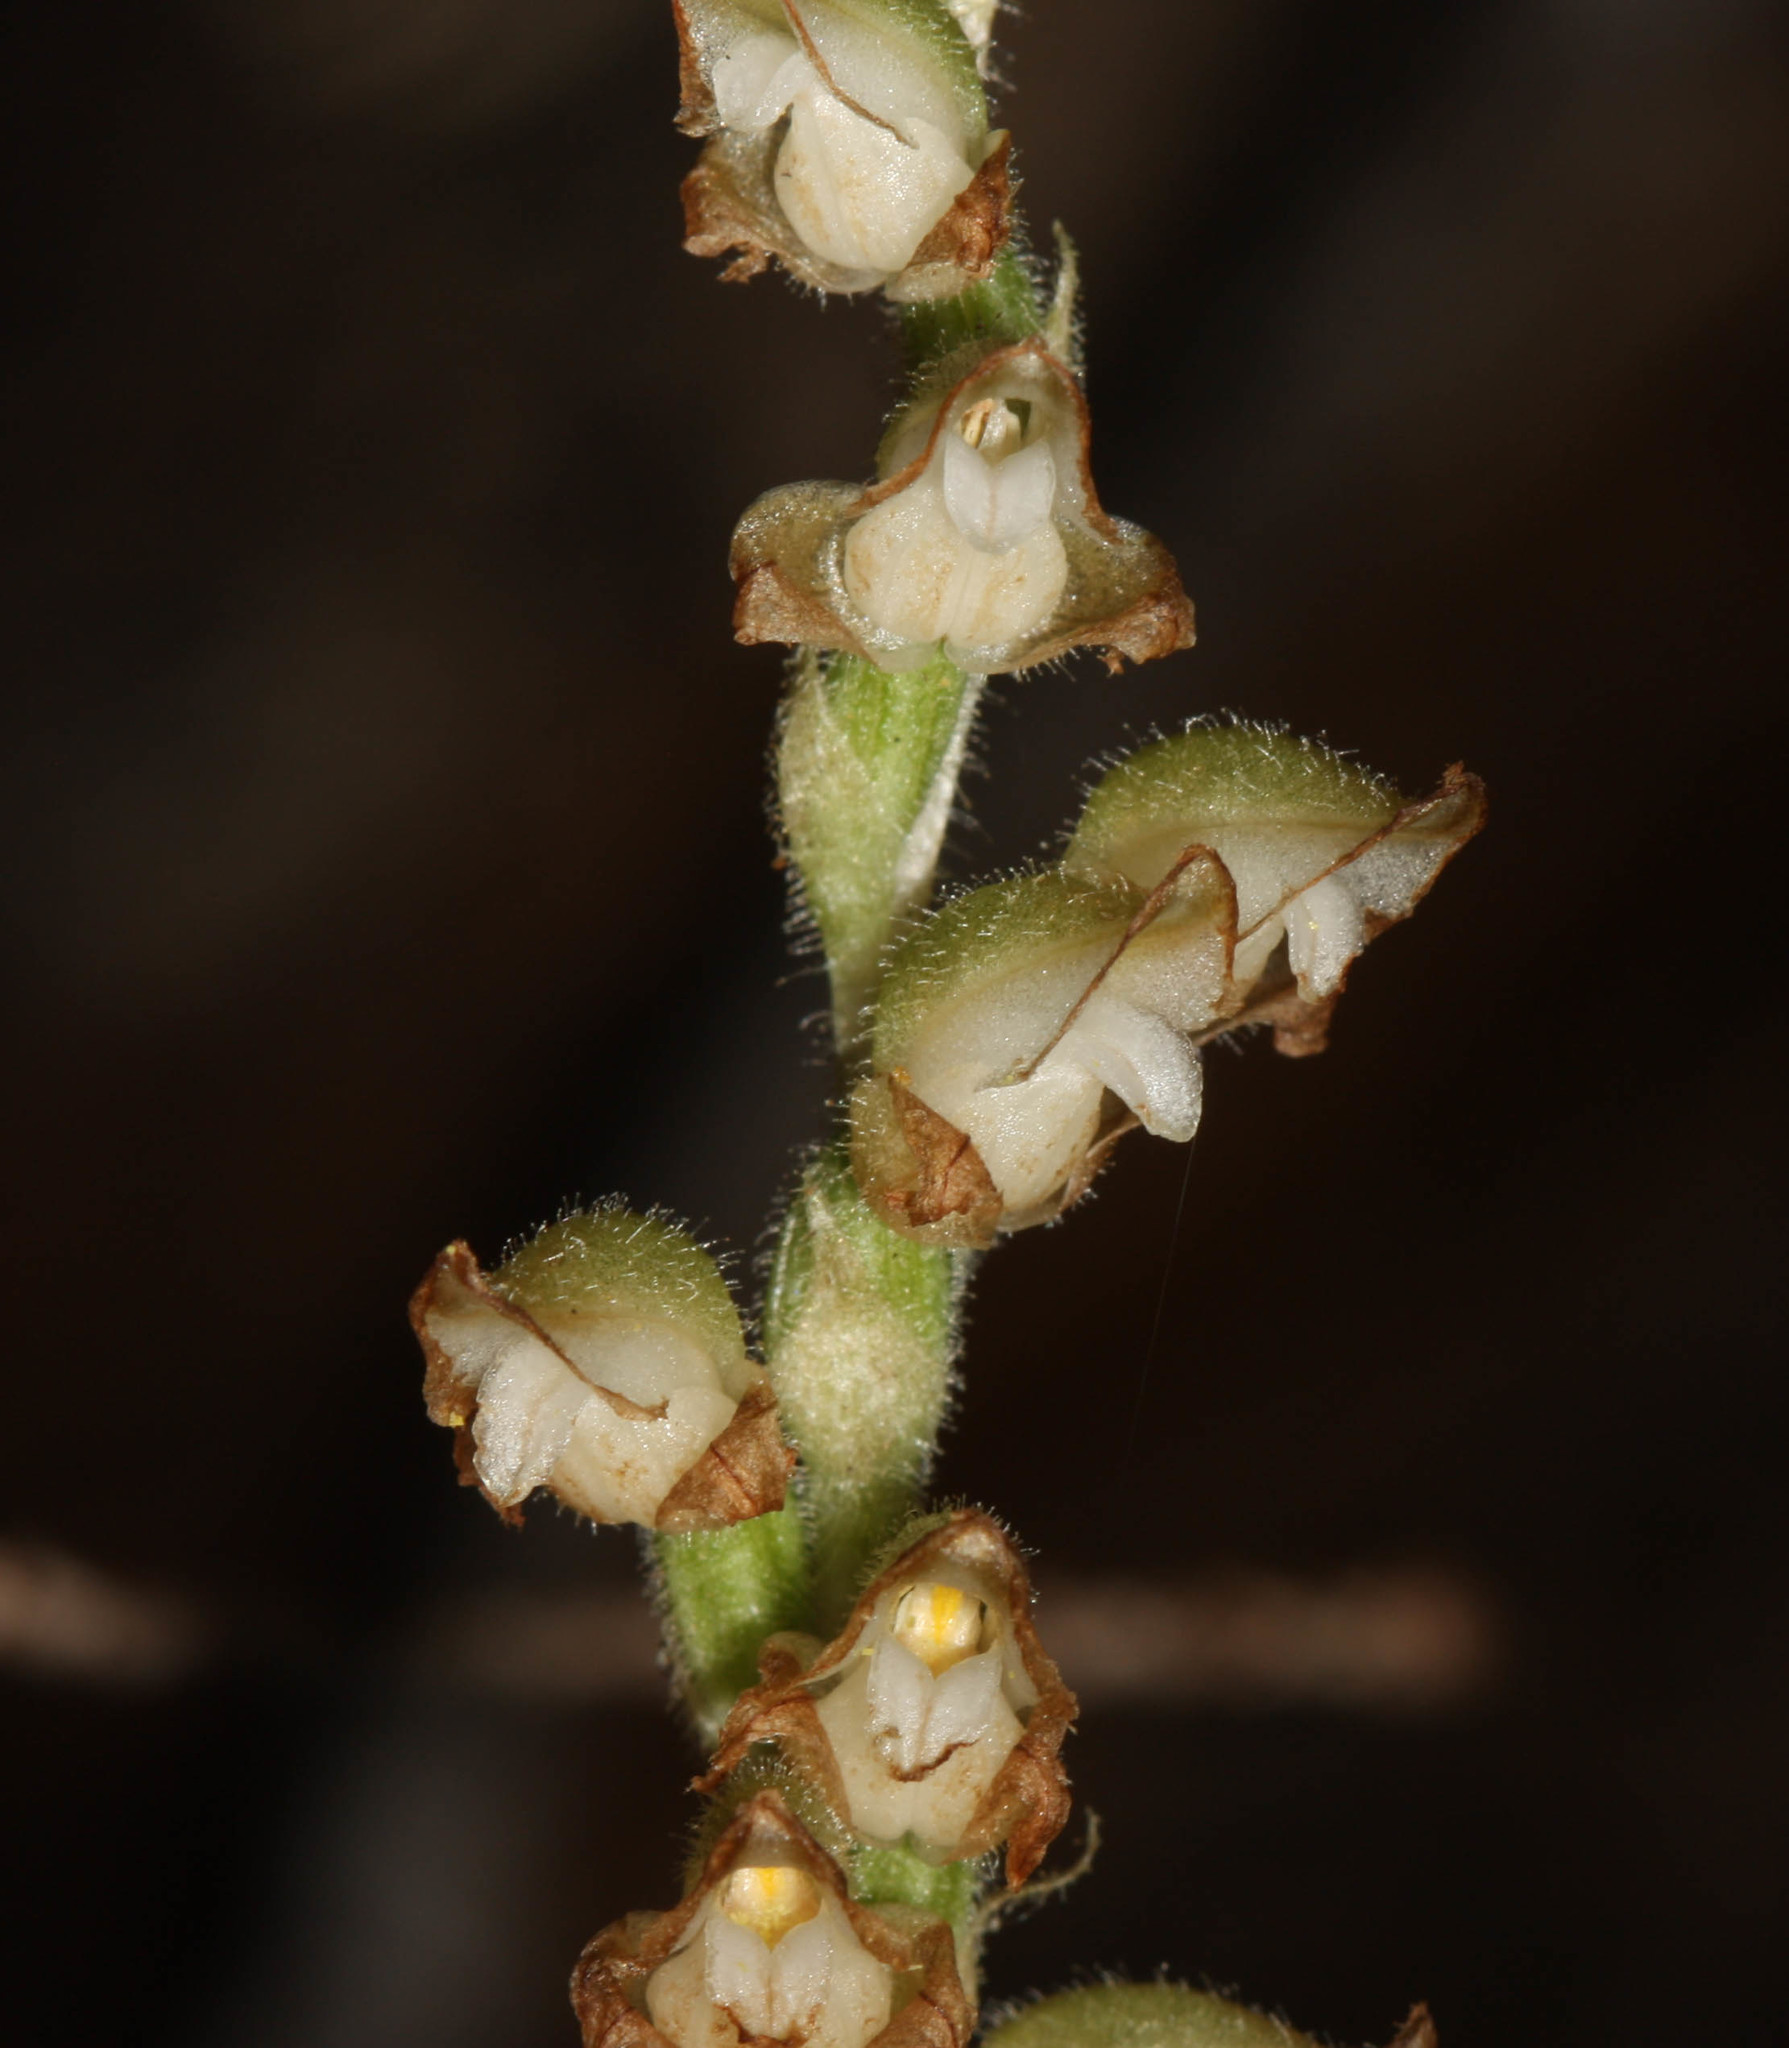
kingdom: Plantae
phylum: Tracheophyta
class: Liliopsida
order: Asparagales
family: Orchidaceae
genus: Goodyera
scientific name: Goodyera oblongifolia
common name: Giant rattlesnake-plantain
